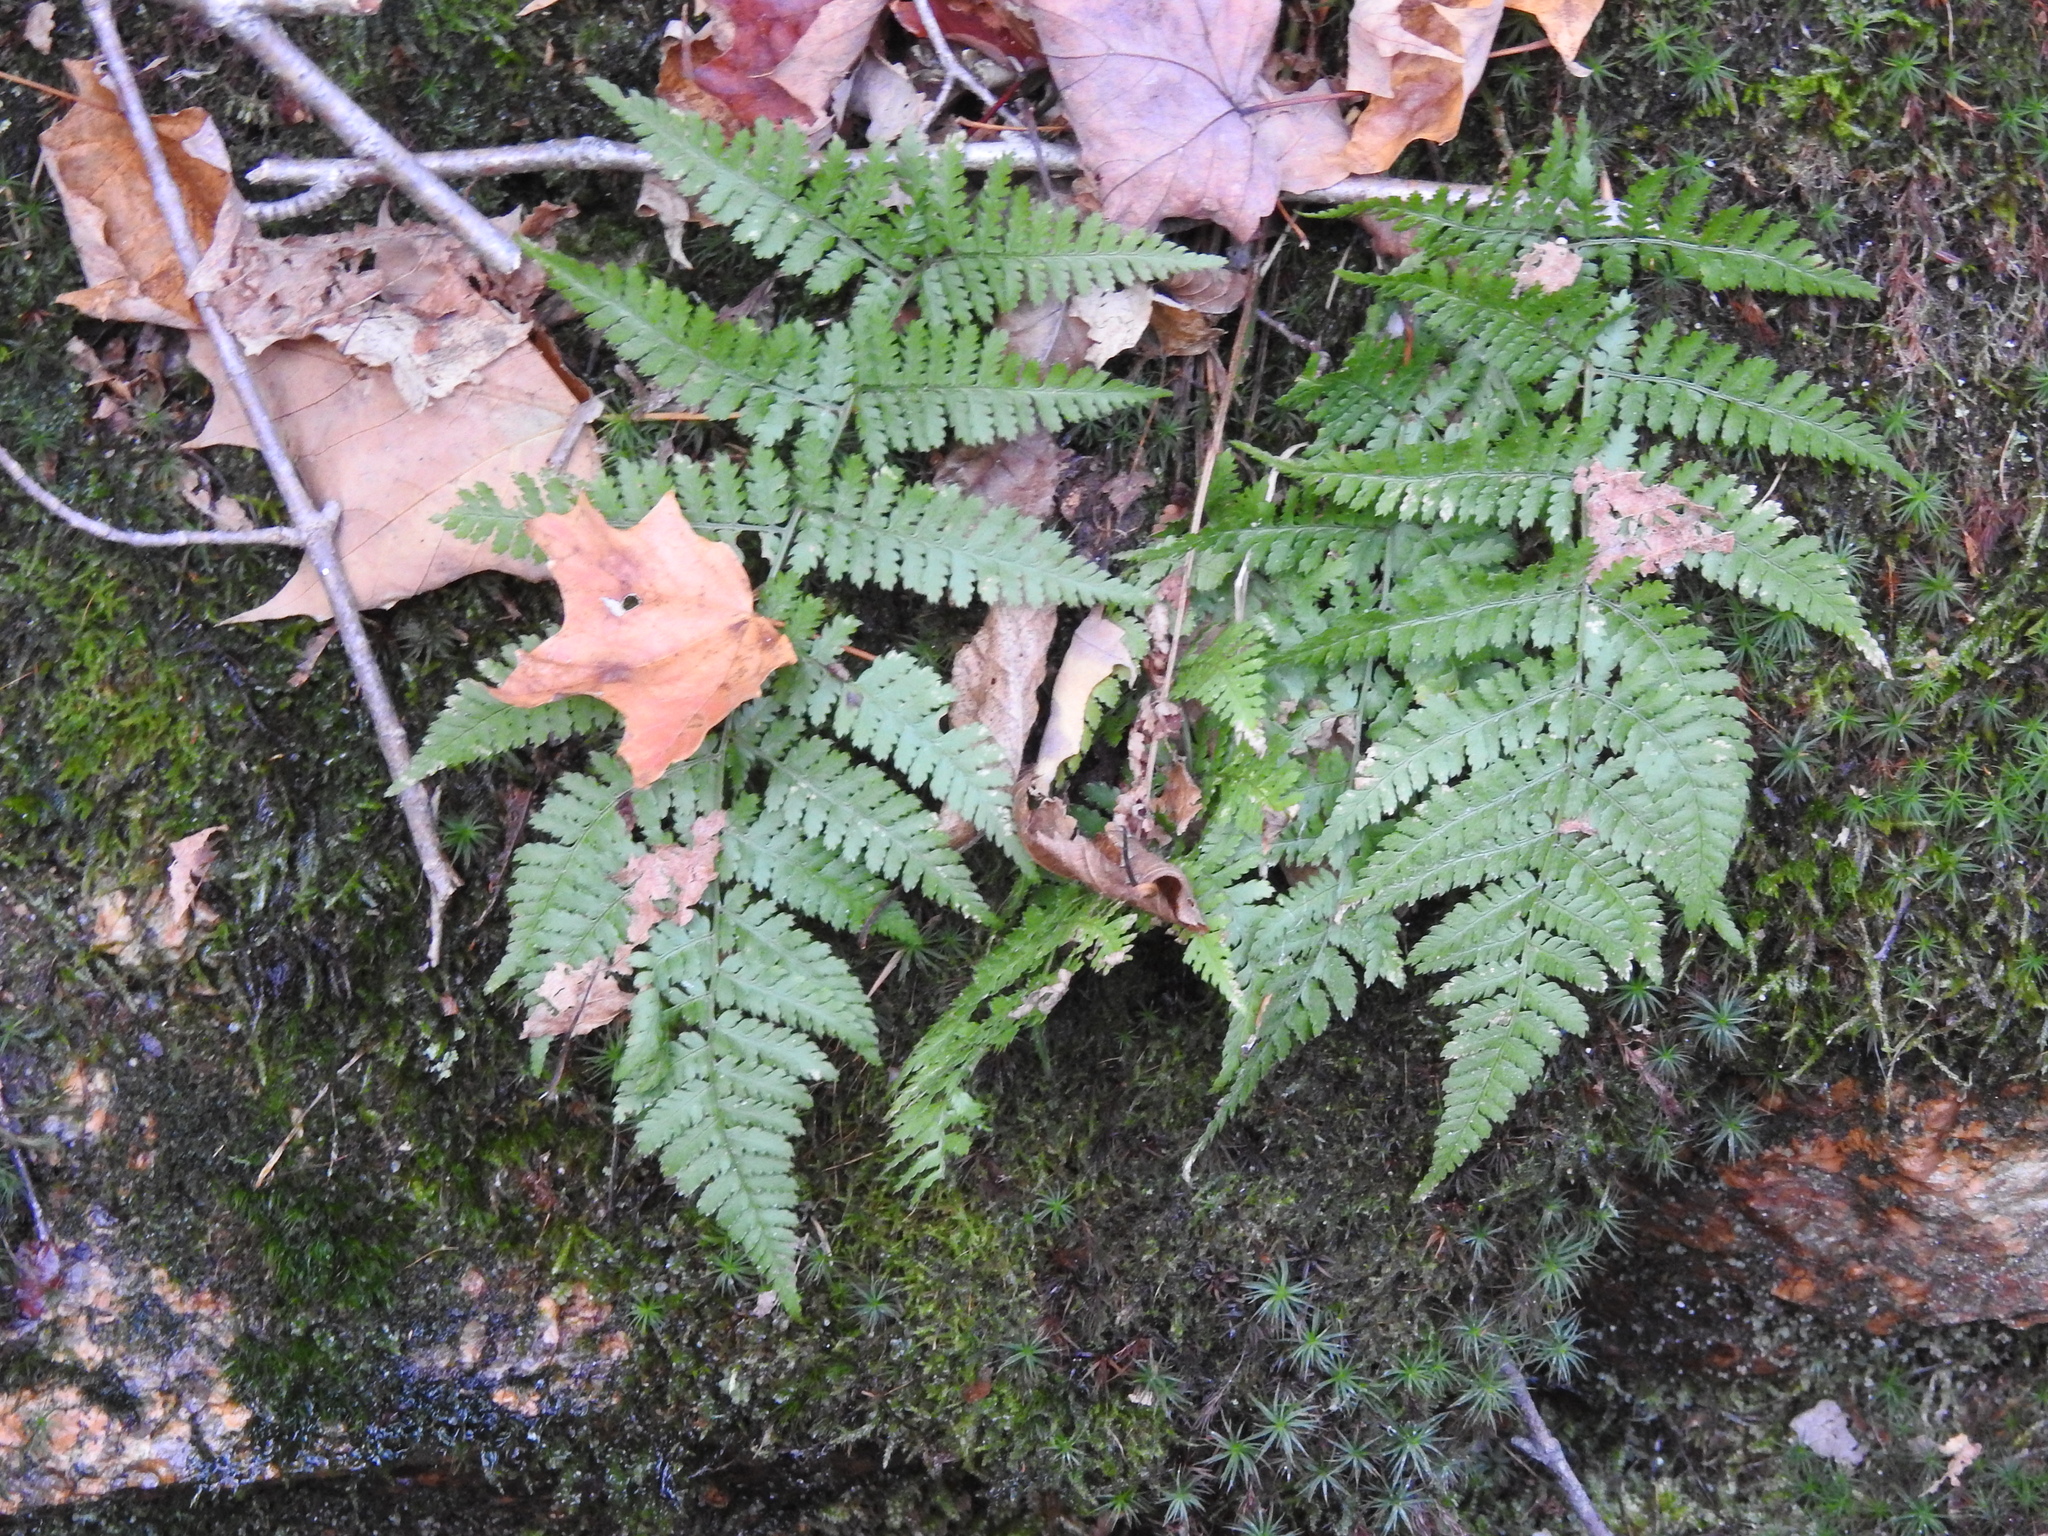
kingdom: Plantae
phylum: Tracheophyta
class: Polypodiopsida
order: Polypodiales
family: Dryopteridaceae
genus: Dryopteris
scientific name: Dryopteris intermedia
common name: Evergreen wood fern
